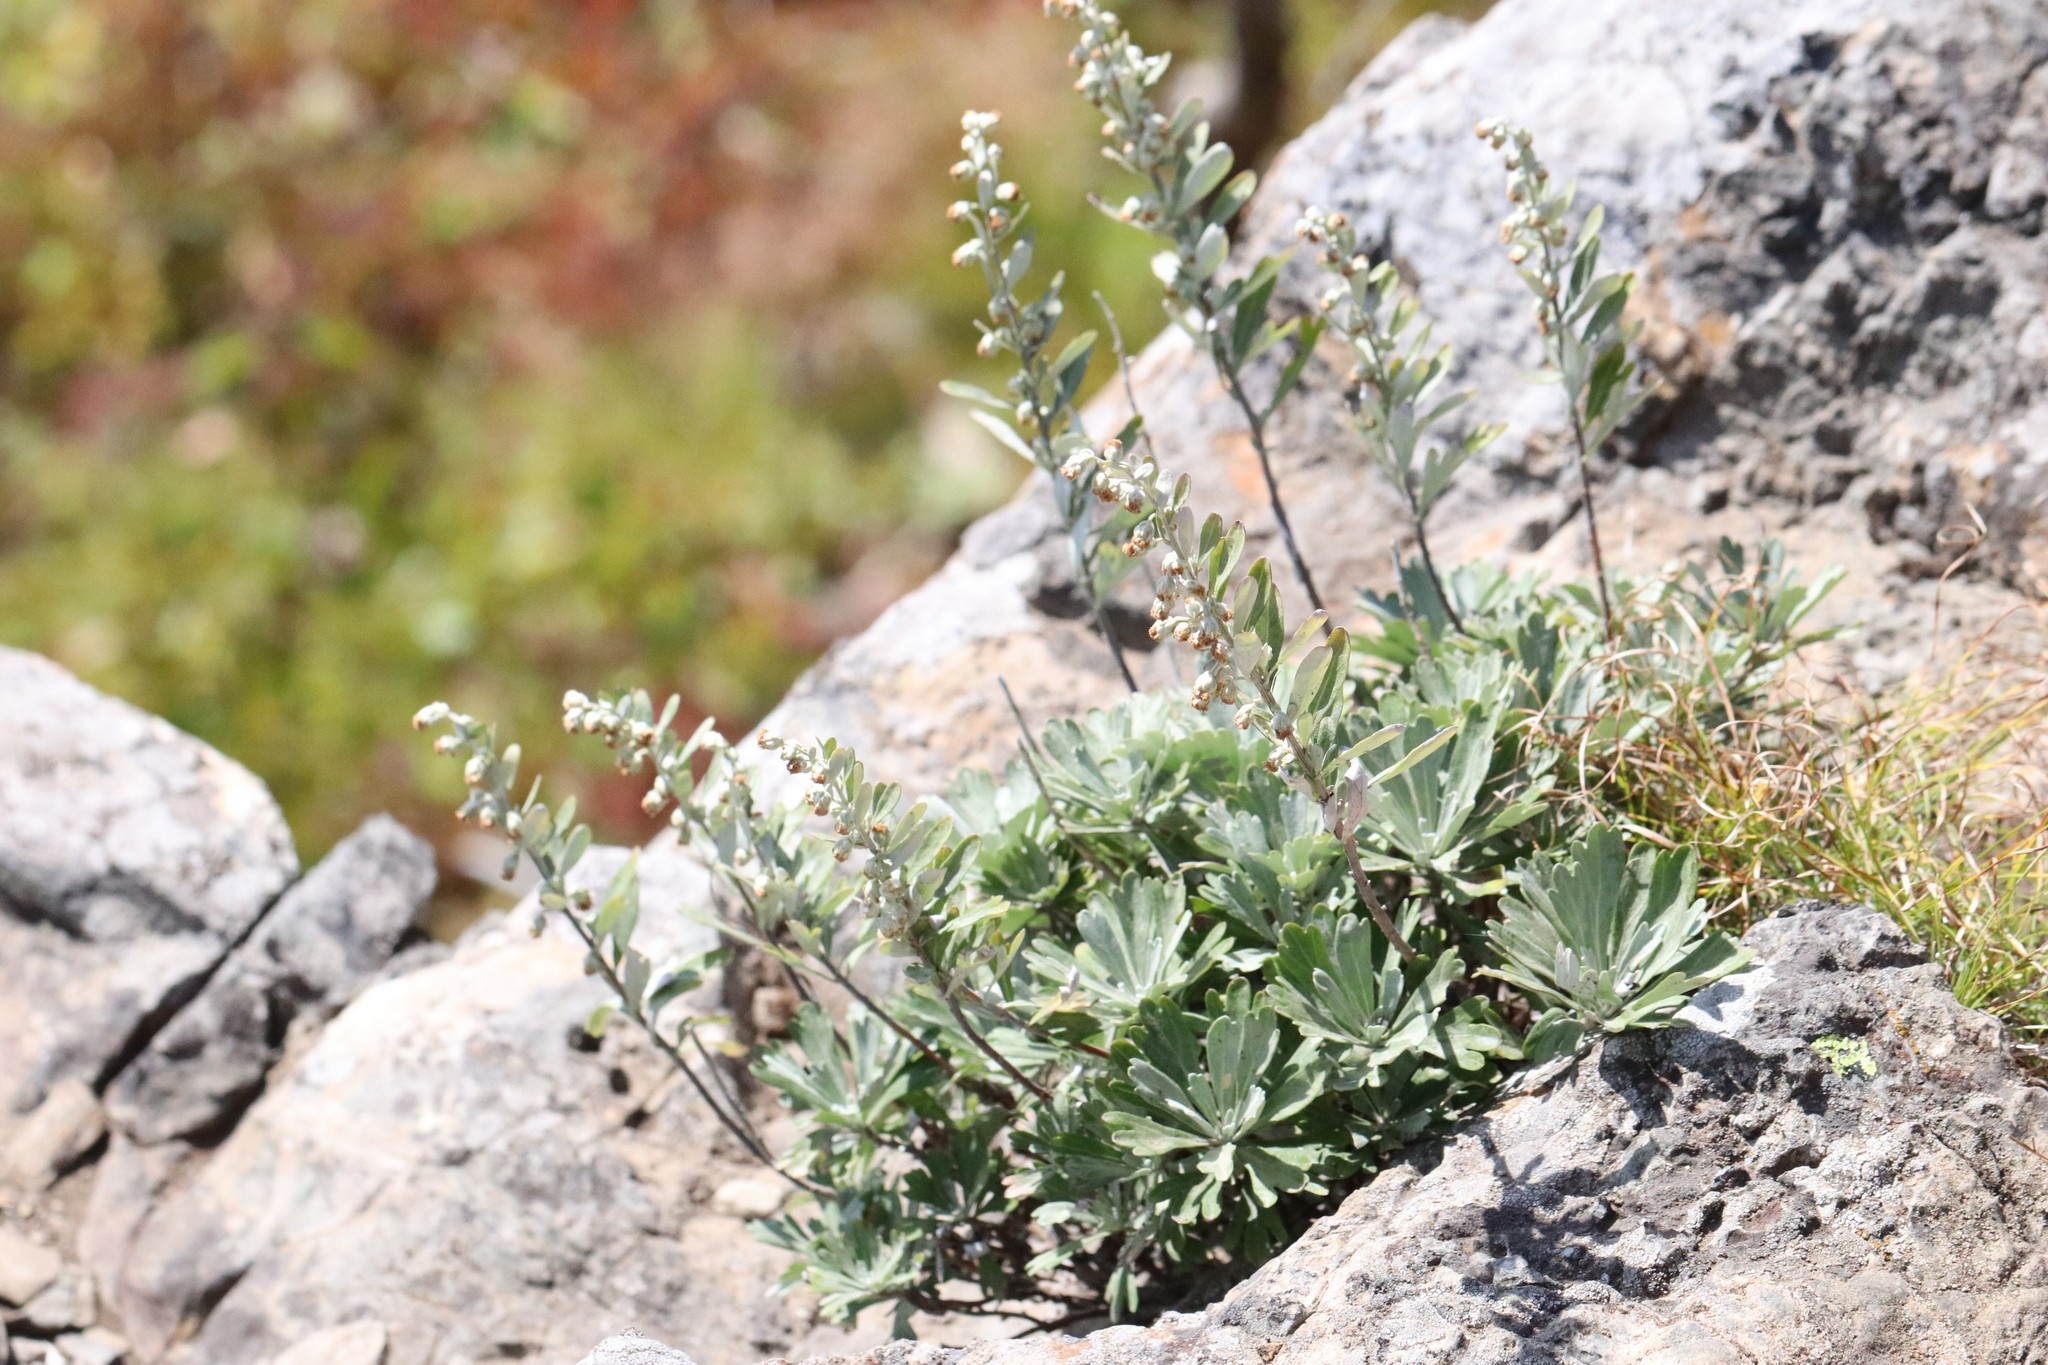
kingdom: Plantae
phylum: Tracheophyta
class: Magnoliopsida
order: Asterales
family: Asteraceae
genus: Artemisia
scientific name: Artemisia lagocephala
